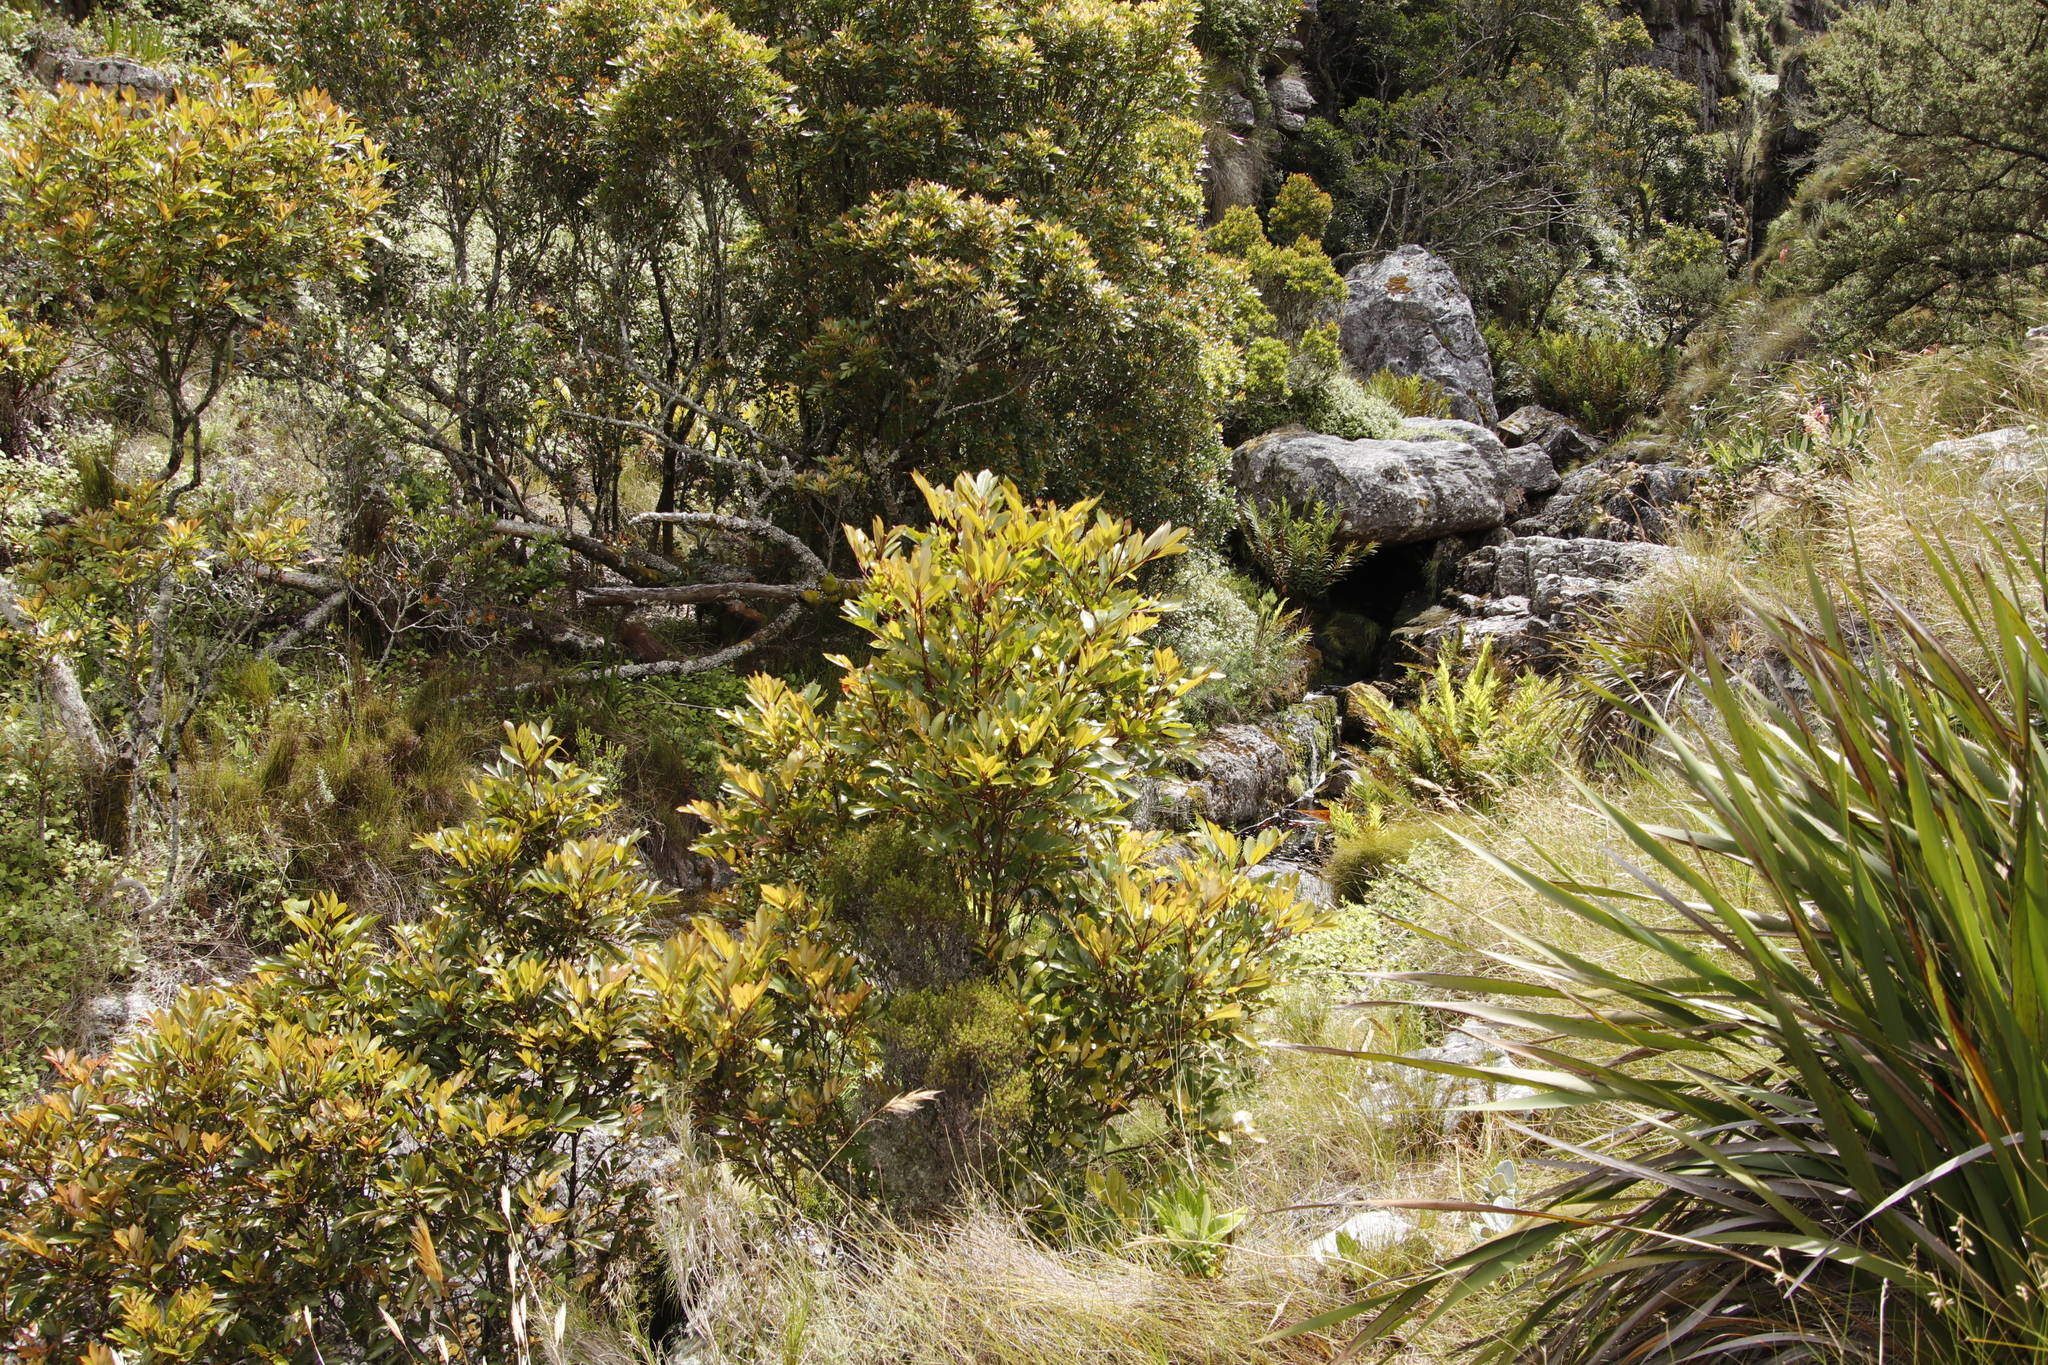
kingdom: Plantae
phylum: Tracheophyta
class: Magnoliopsida
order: Oxalidales
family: Cunoniaceae
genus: Cunonia
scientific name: Cunonia capensis
